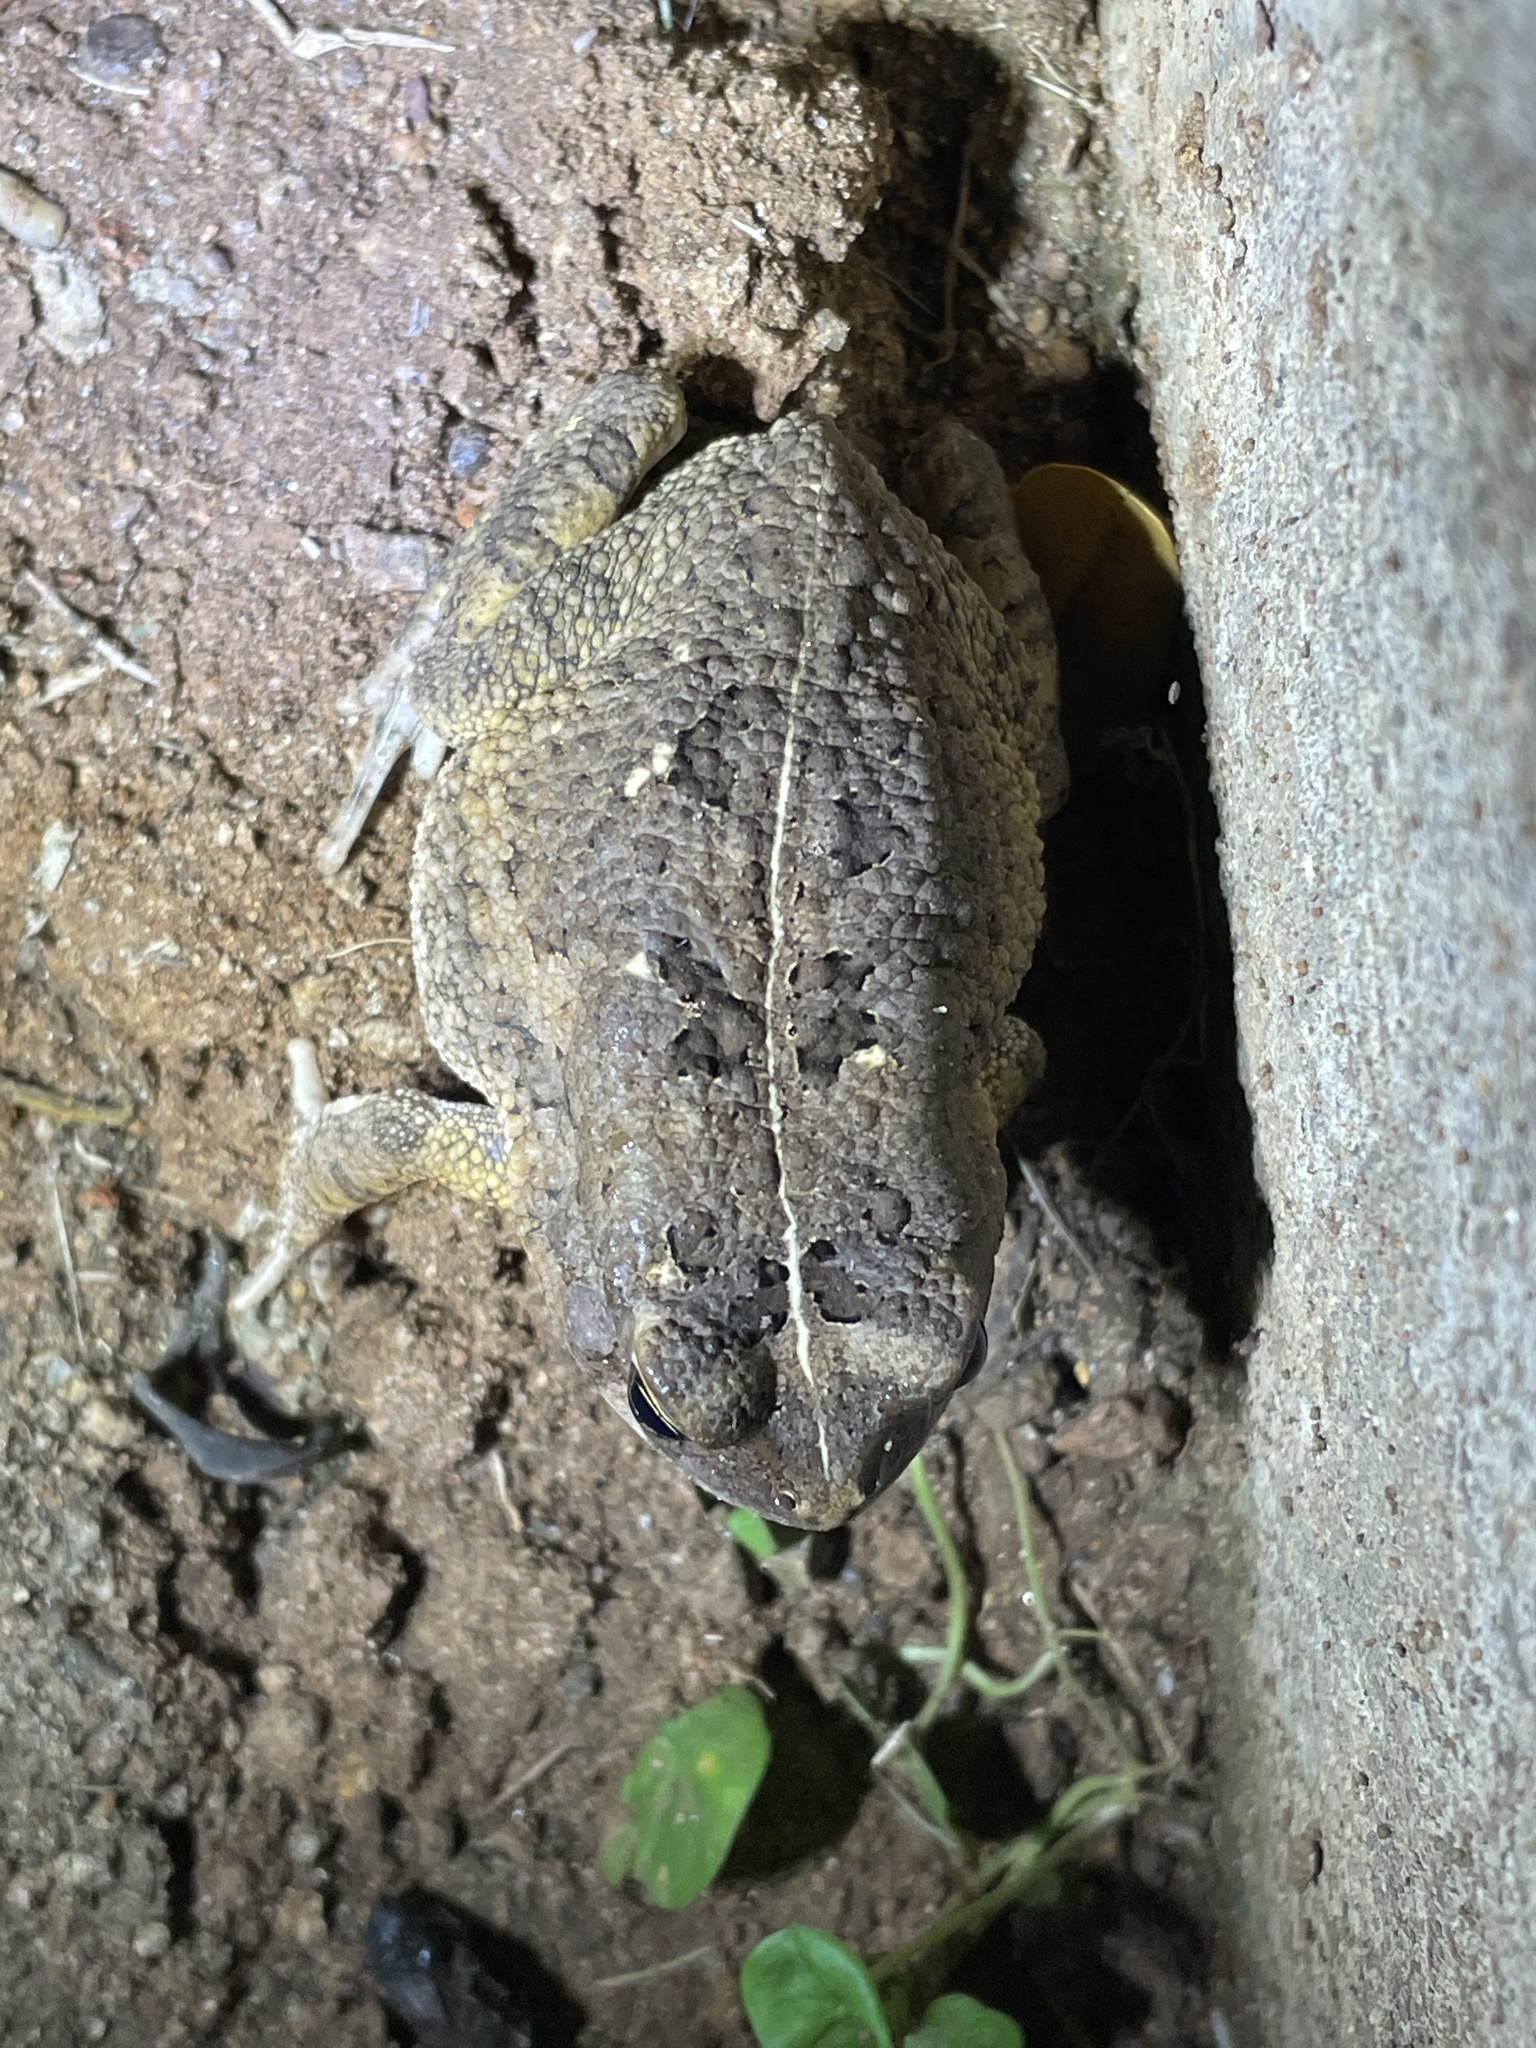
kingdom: Animalia
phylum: Chordata
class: Amphibia
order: Anura
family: Bufonidae
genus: Sclerophrys
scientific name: Sclerophrys gutturalis
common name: African common toad
